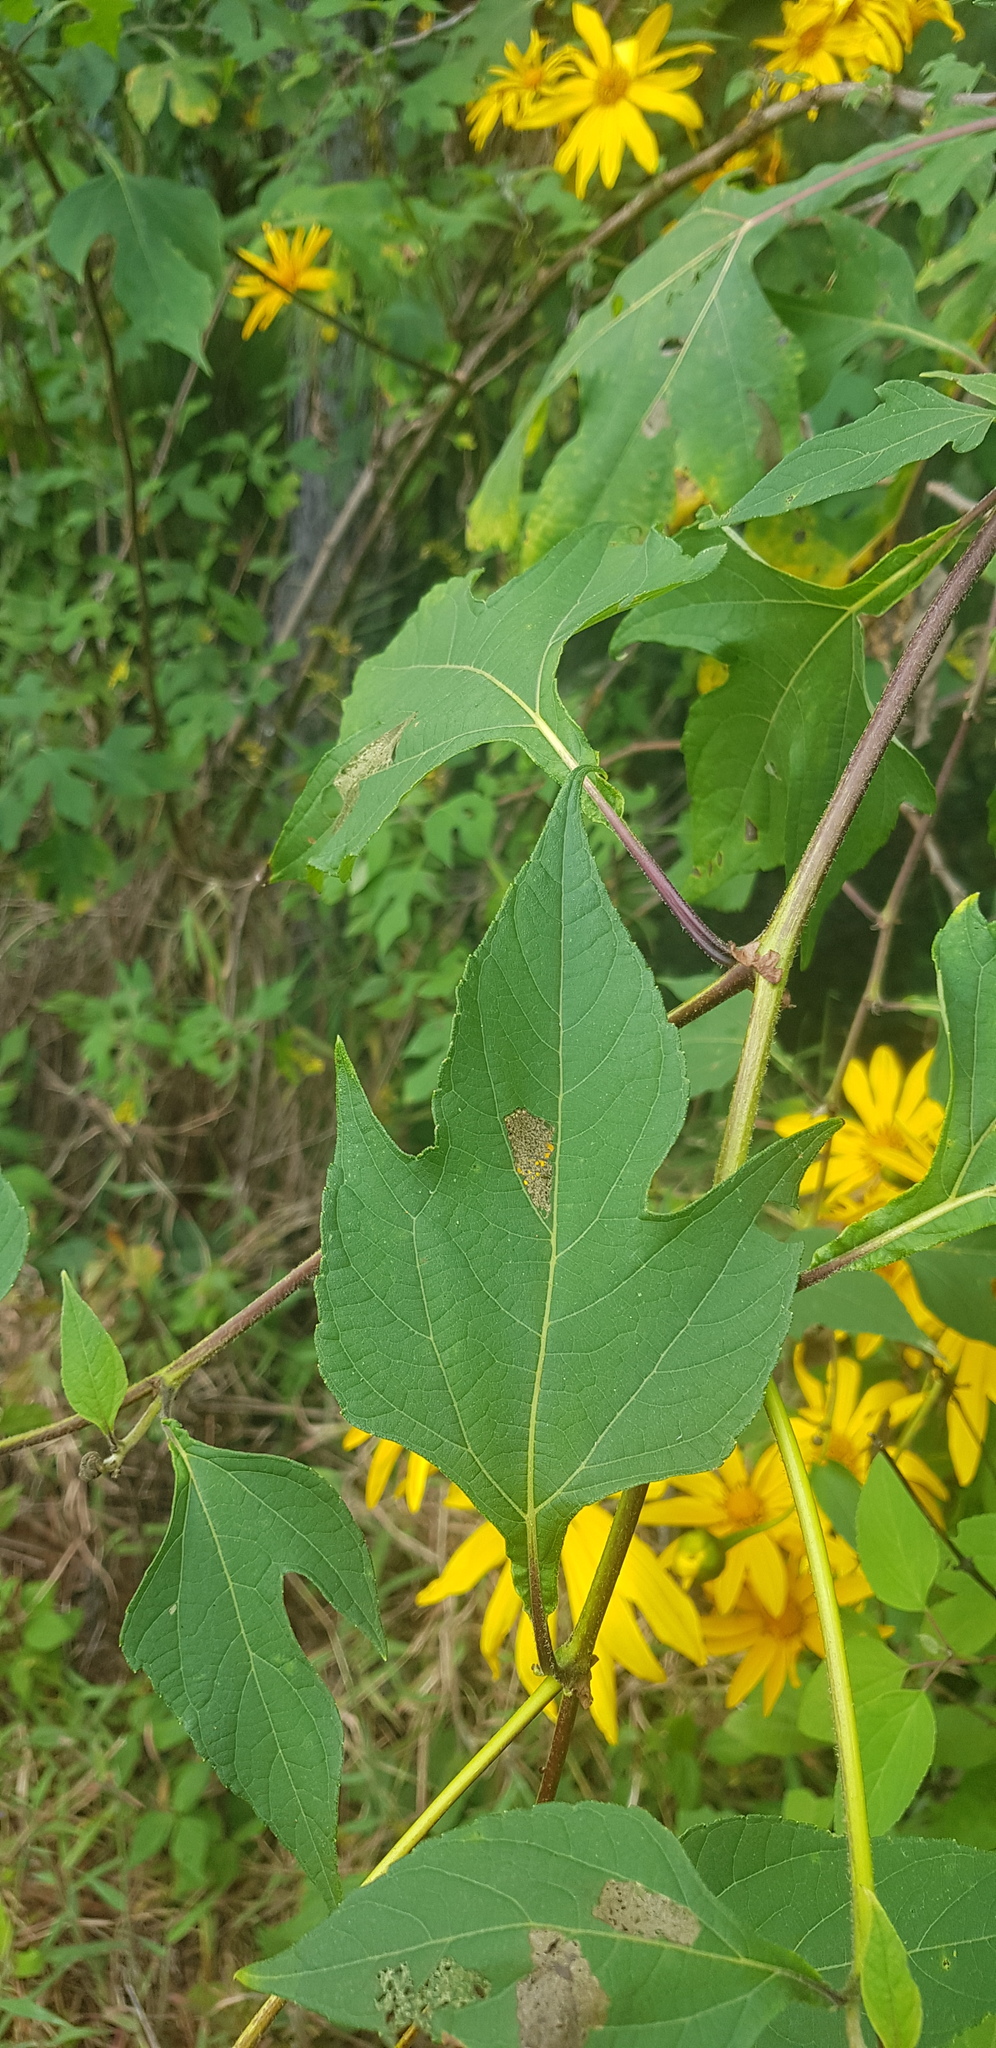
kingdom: Plantae
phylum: Tracheophyta
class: Magnoliopsida
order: Asterales
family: Asteraceae
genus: Tithonia
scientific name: Tithonia diversifolia
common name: Tree marigold
